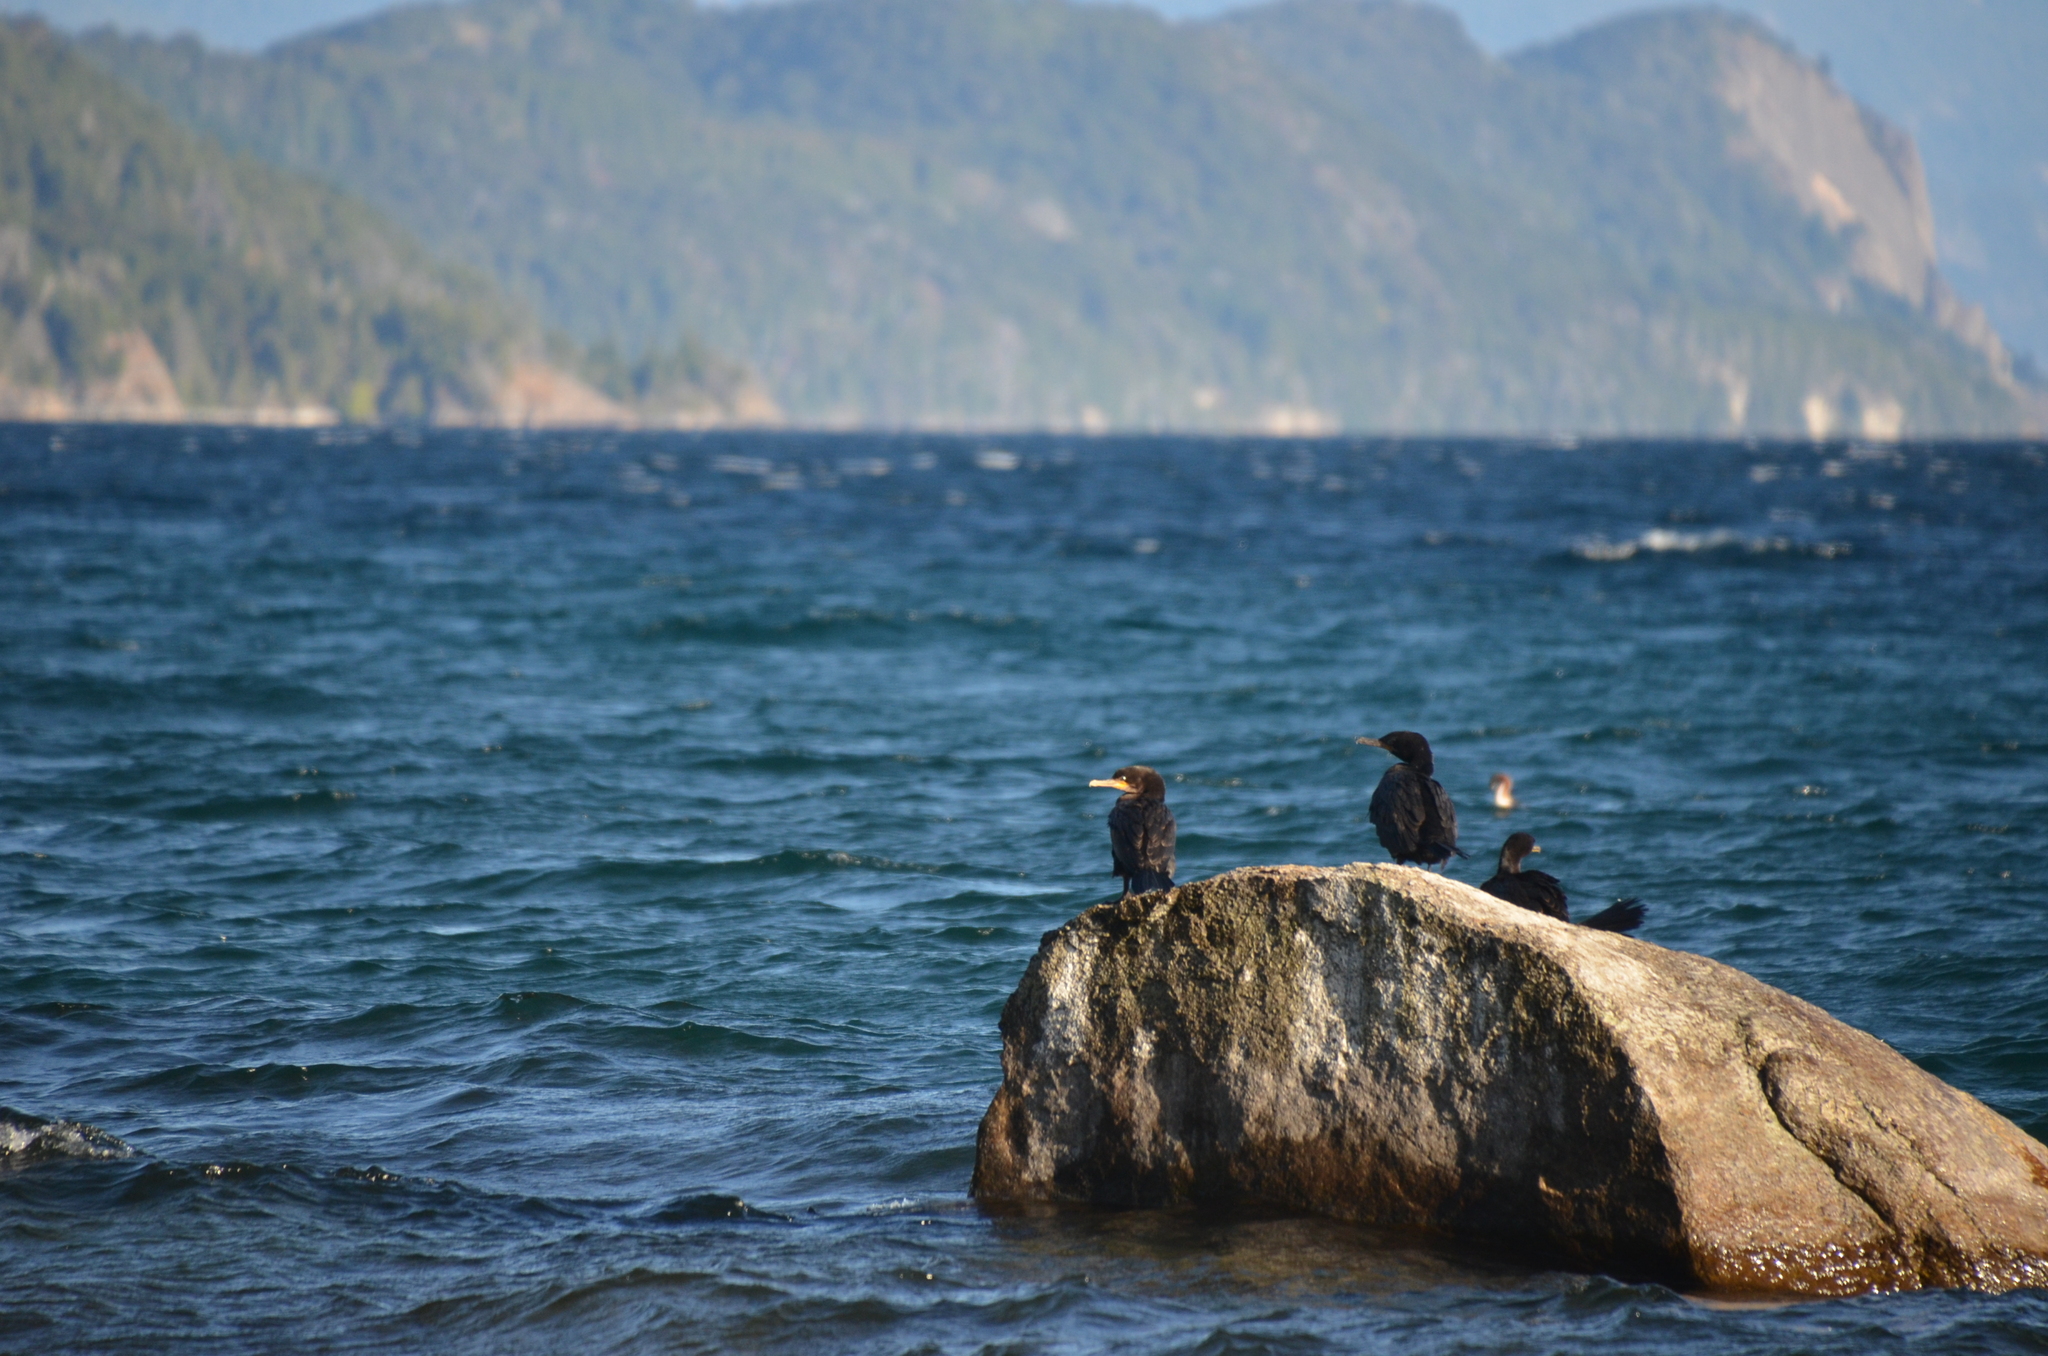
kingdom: Animalia
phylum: Chordata
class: Aves
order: Suliformes
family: Phalacrocoracidae
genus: Phalacrocorax
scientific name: Phalacrocorax brasilianus
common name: Neotropic cormorant
